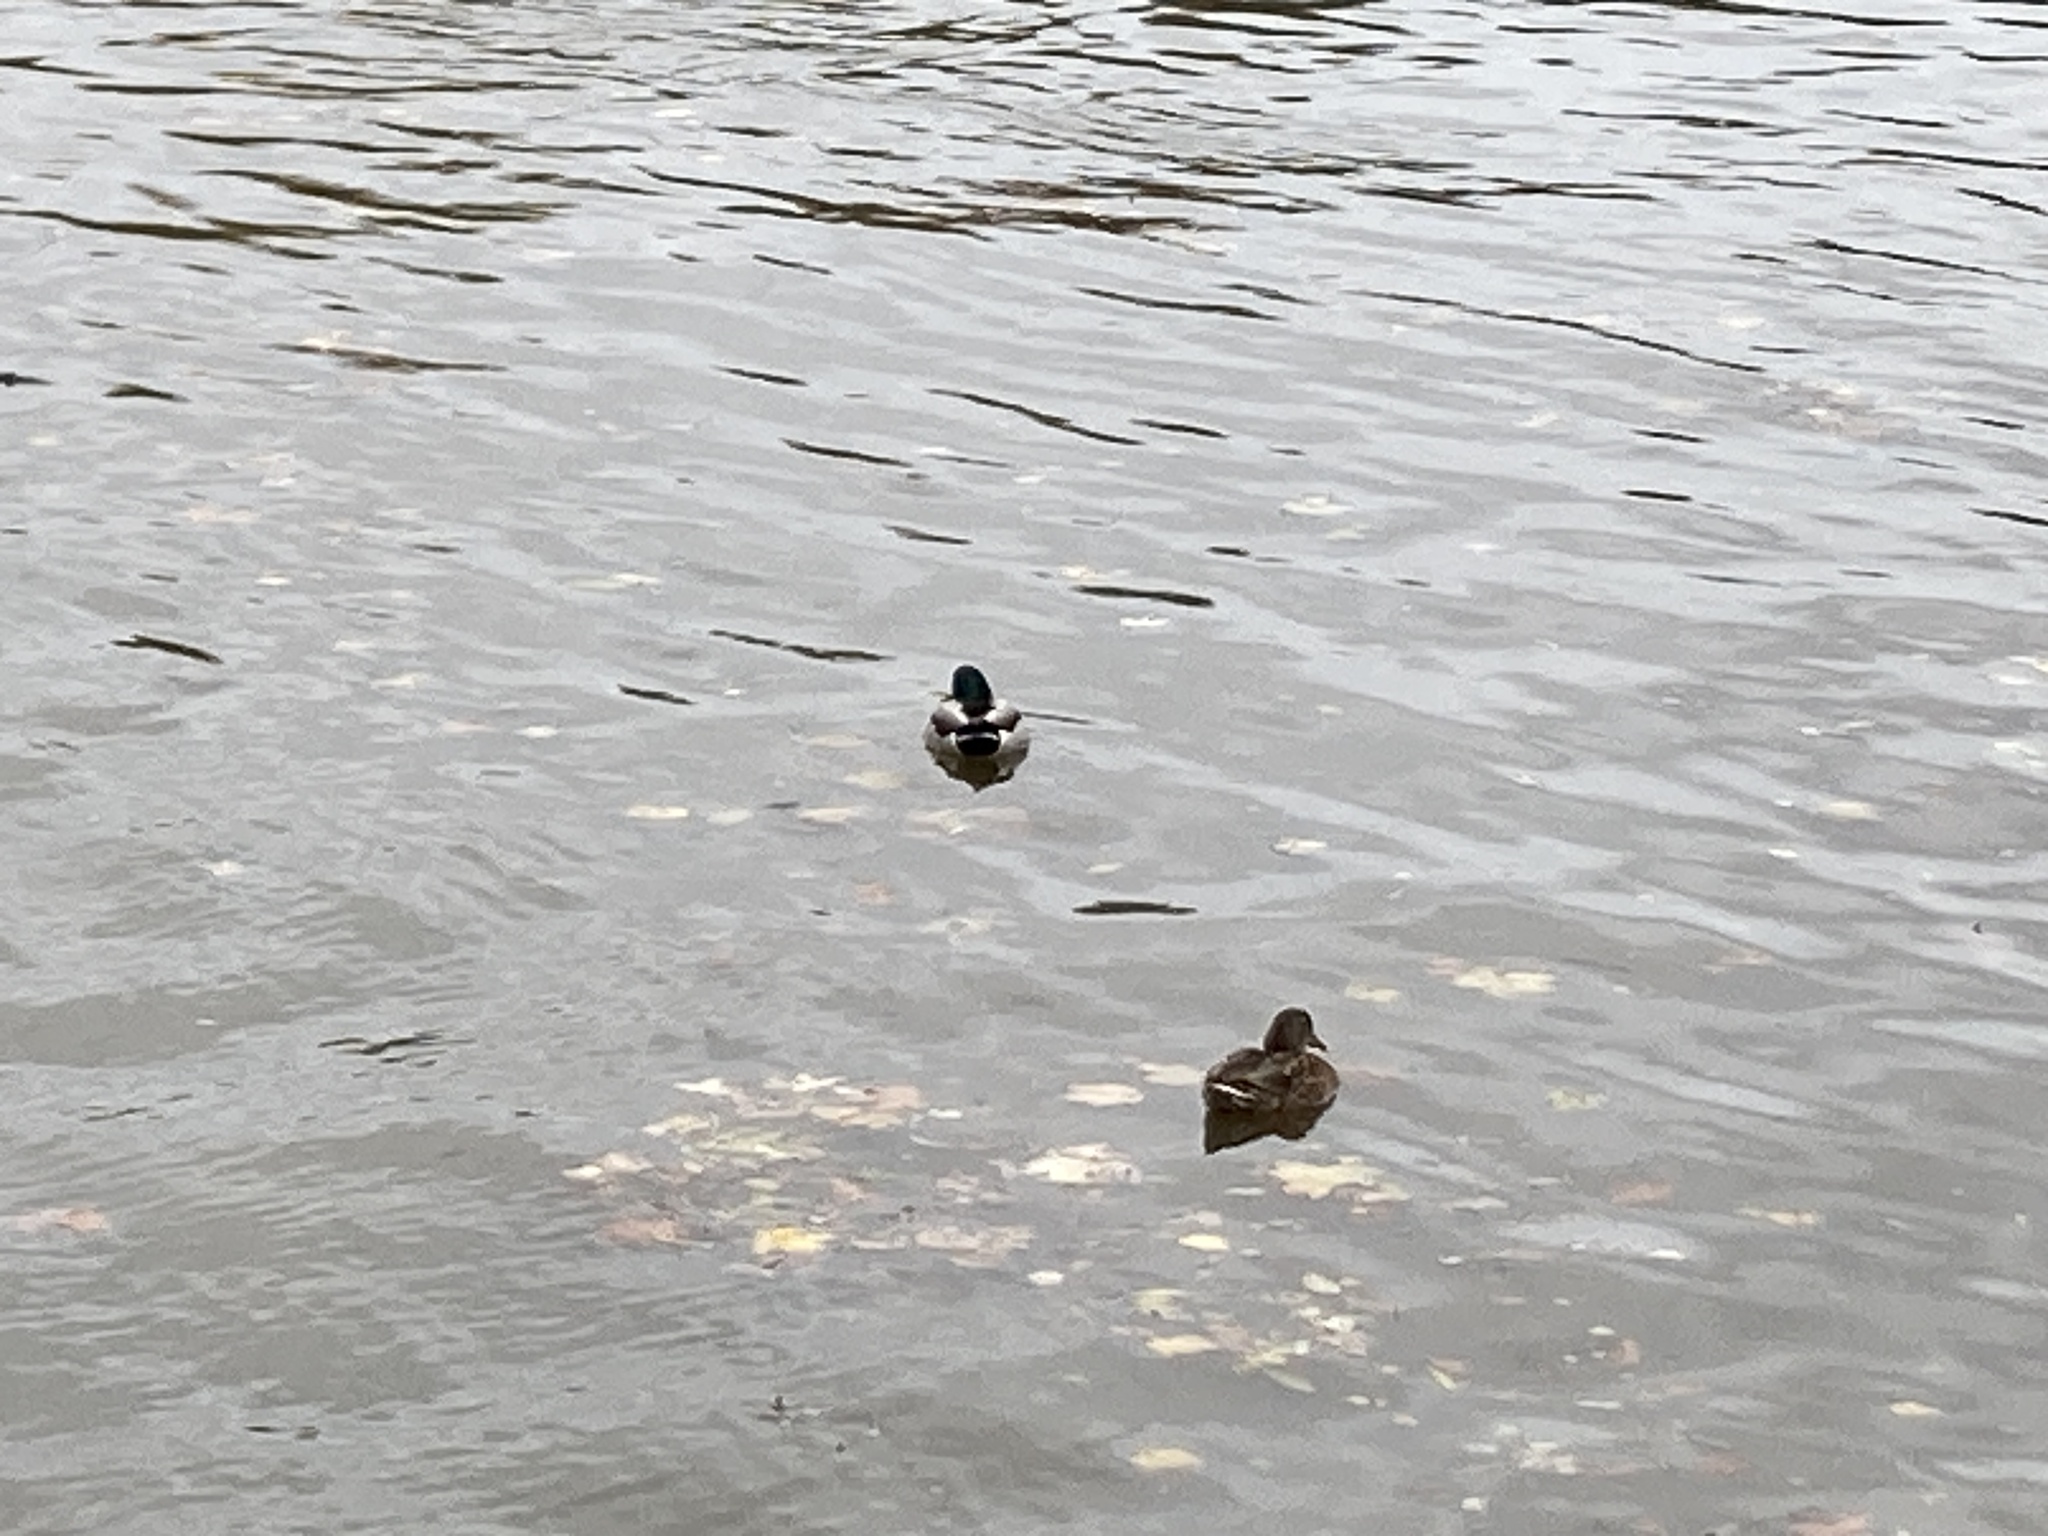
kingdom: Animalia
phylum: Chordata
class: Aves
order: Anseriformes
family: Anatidae
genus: Anas
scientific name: Anas platyrhynchos
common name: Mallard
